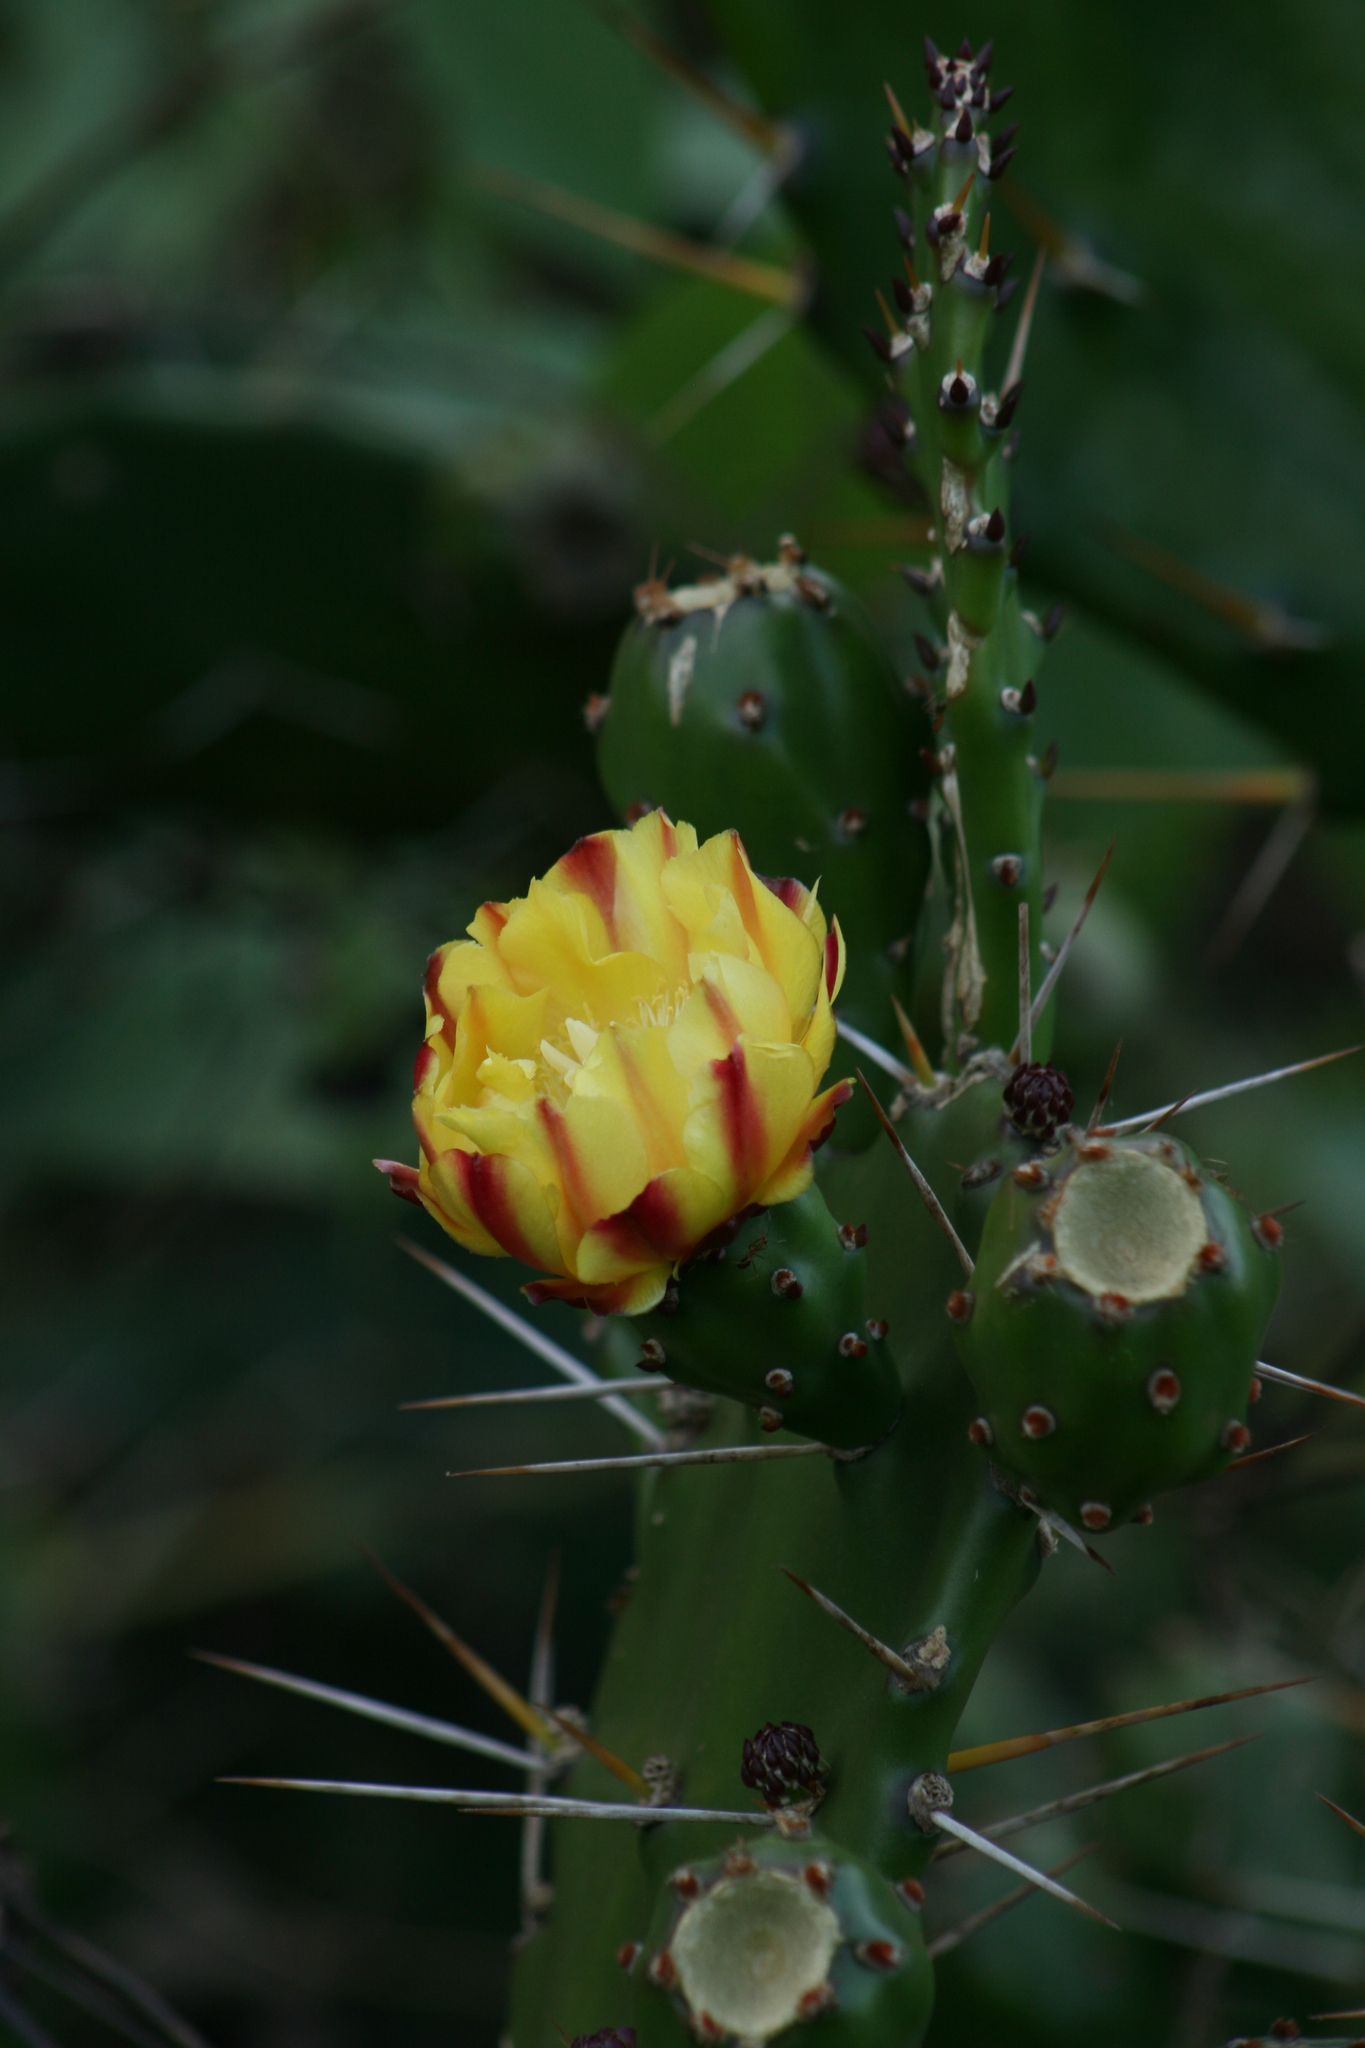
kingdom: Plantae
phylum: Tracheophyta
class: Magnoliopsida
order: Caryophyllales
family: Cactaceae
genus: Opuntia
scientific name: Opuntia monacantha
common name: Common pricklypear
